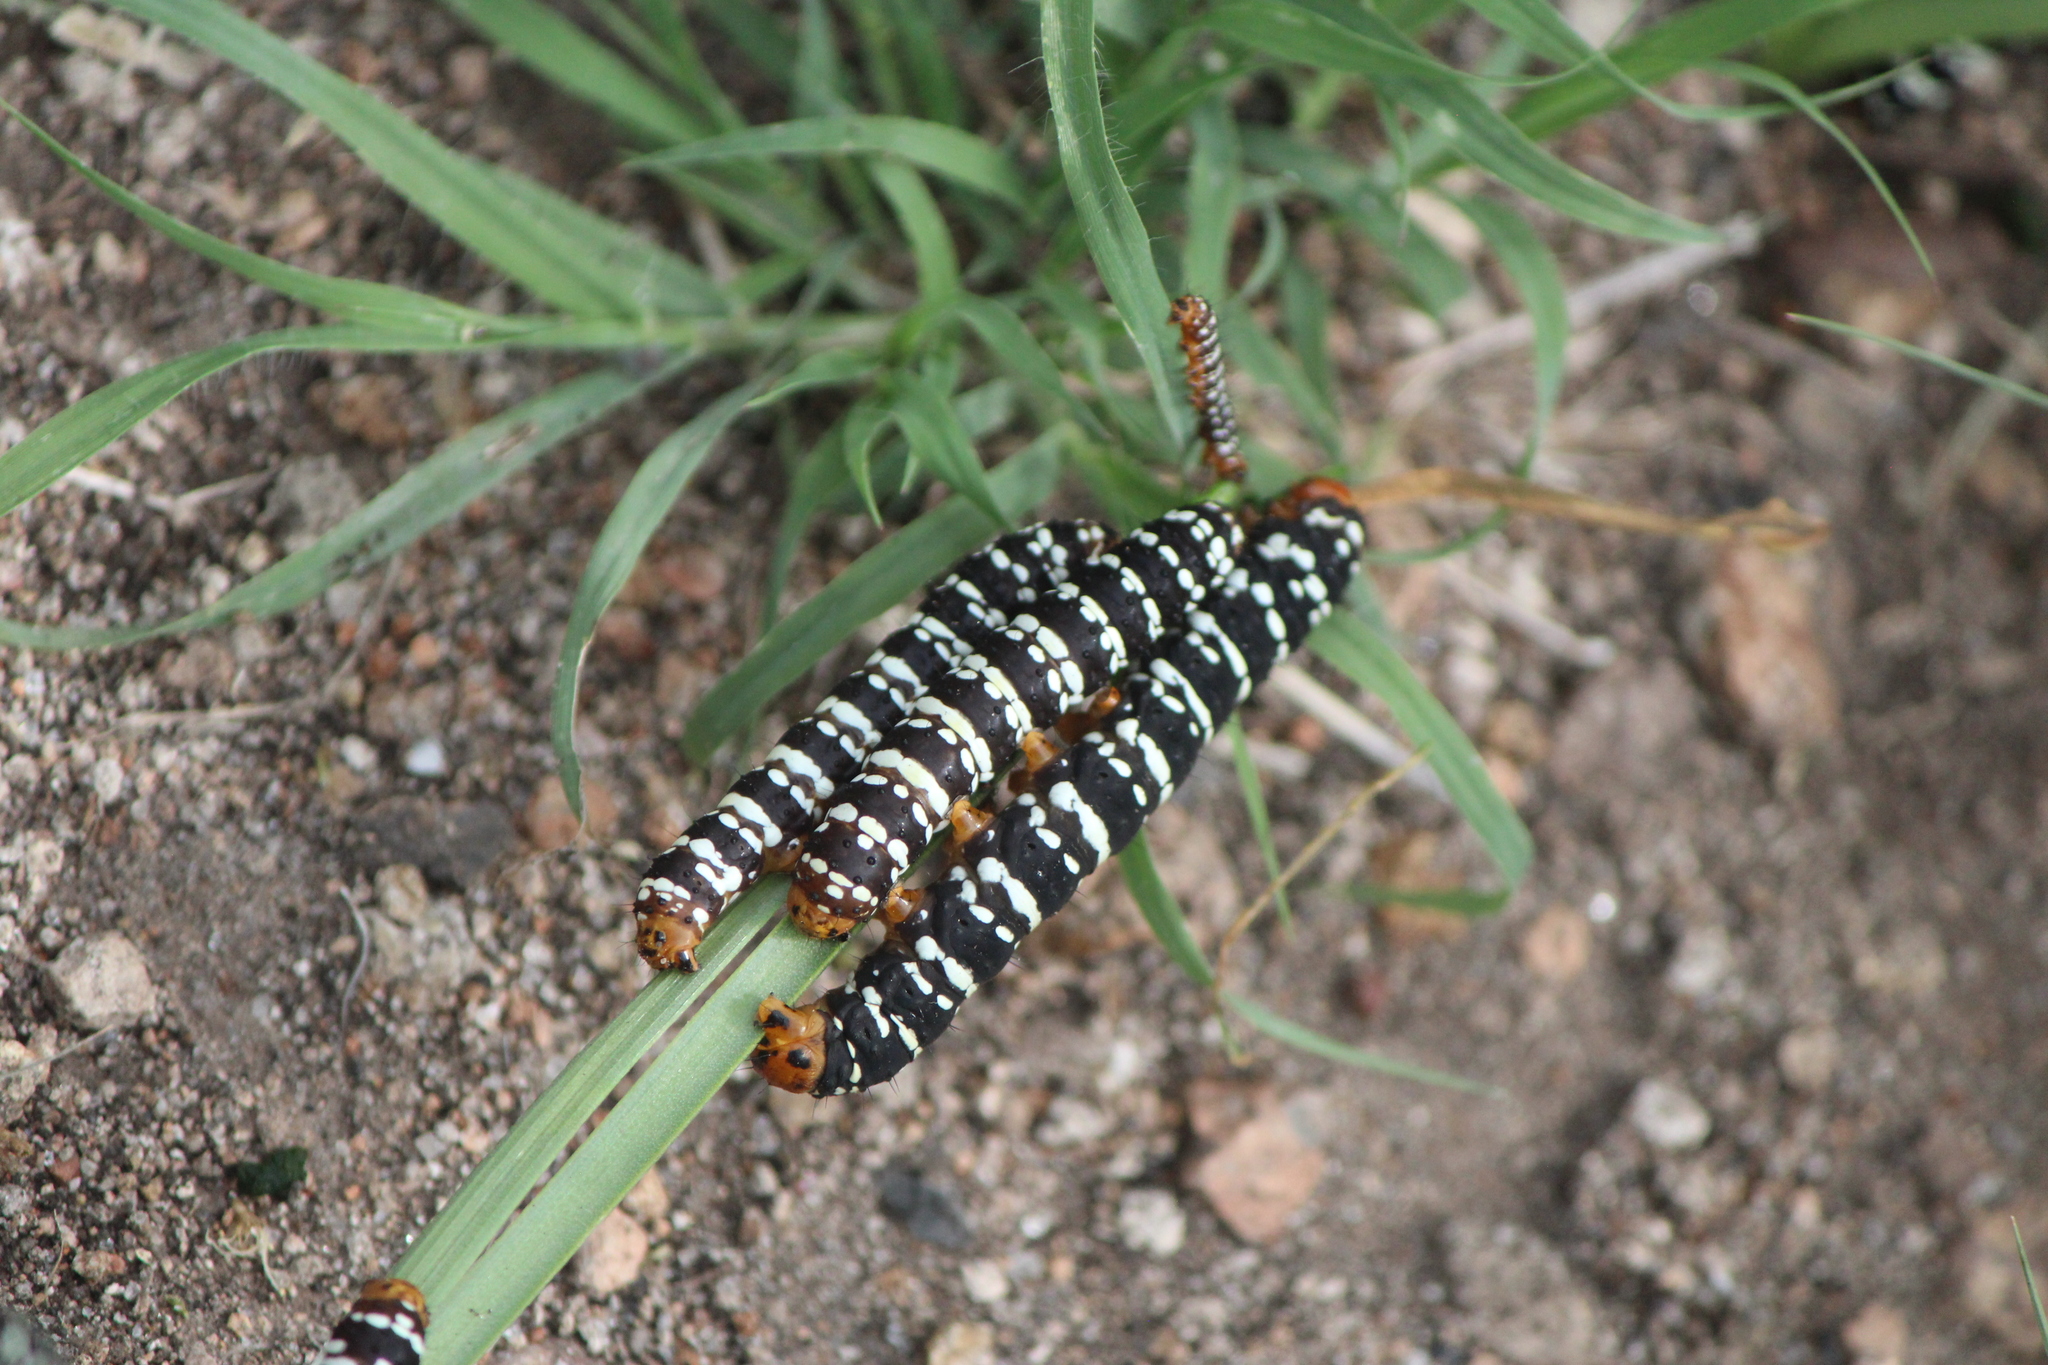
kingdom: Animalia
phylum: Arthropoda
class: Insecta
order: Lepidoptera
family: Noctuidae
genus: Xanthopastis
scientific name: Xanthopastis moctezuma
